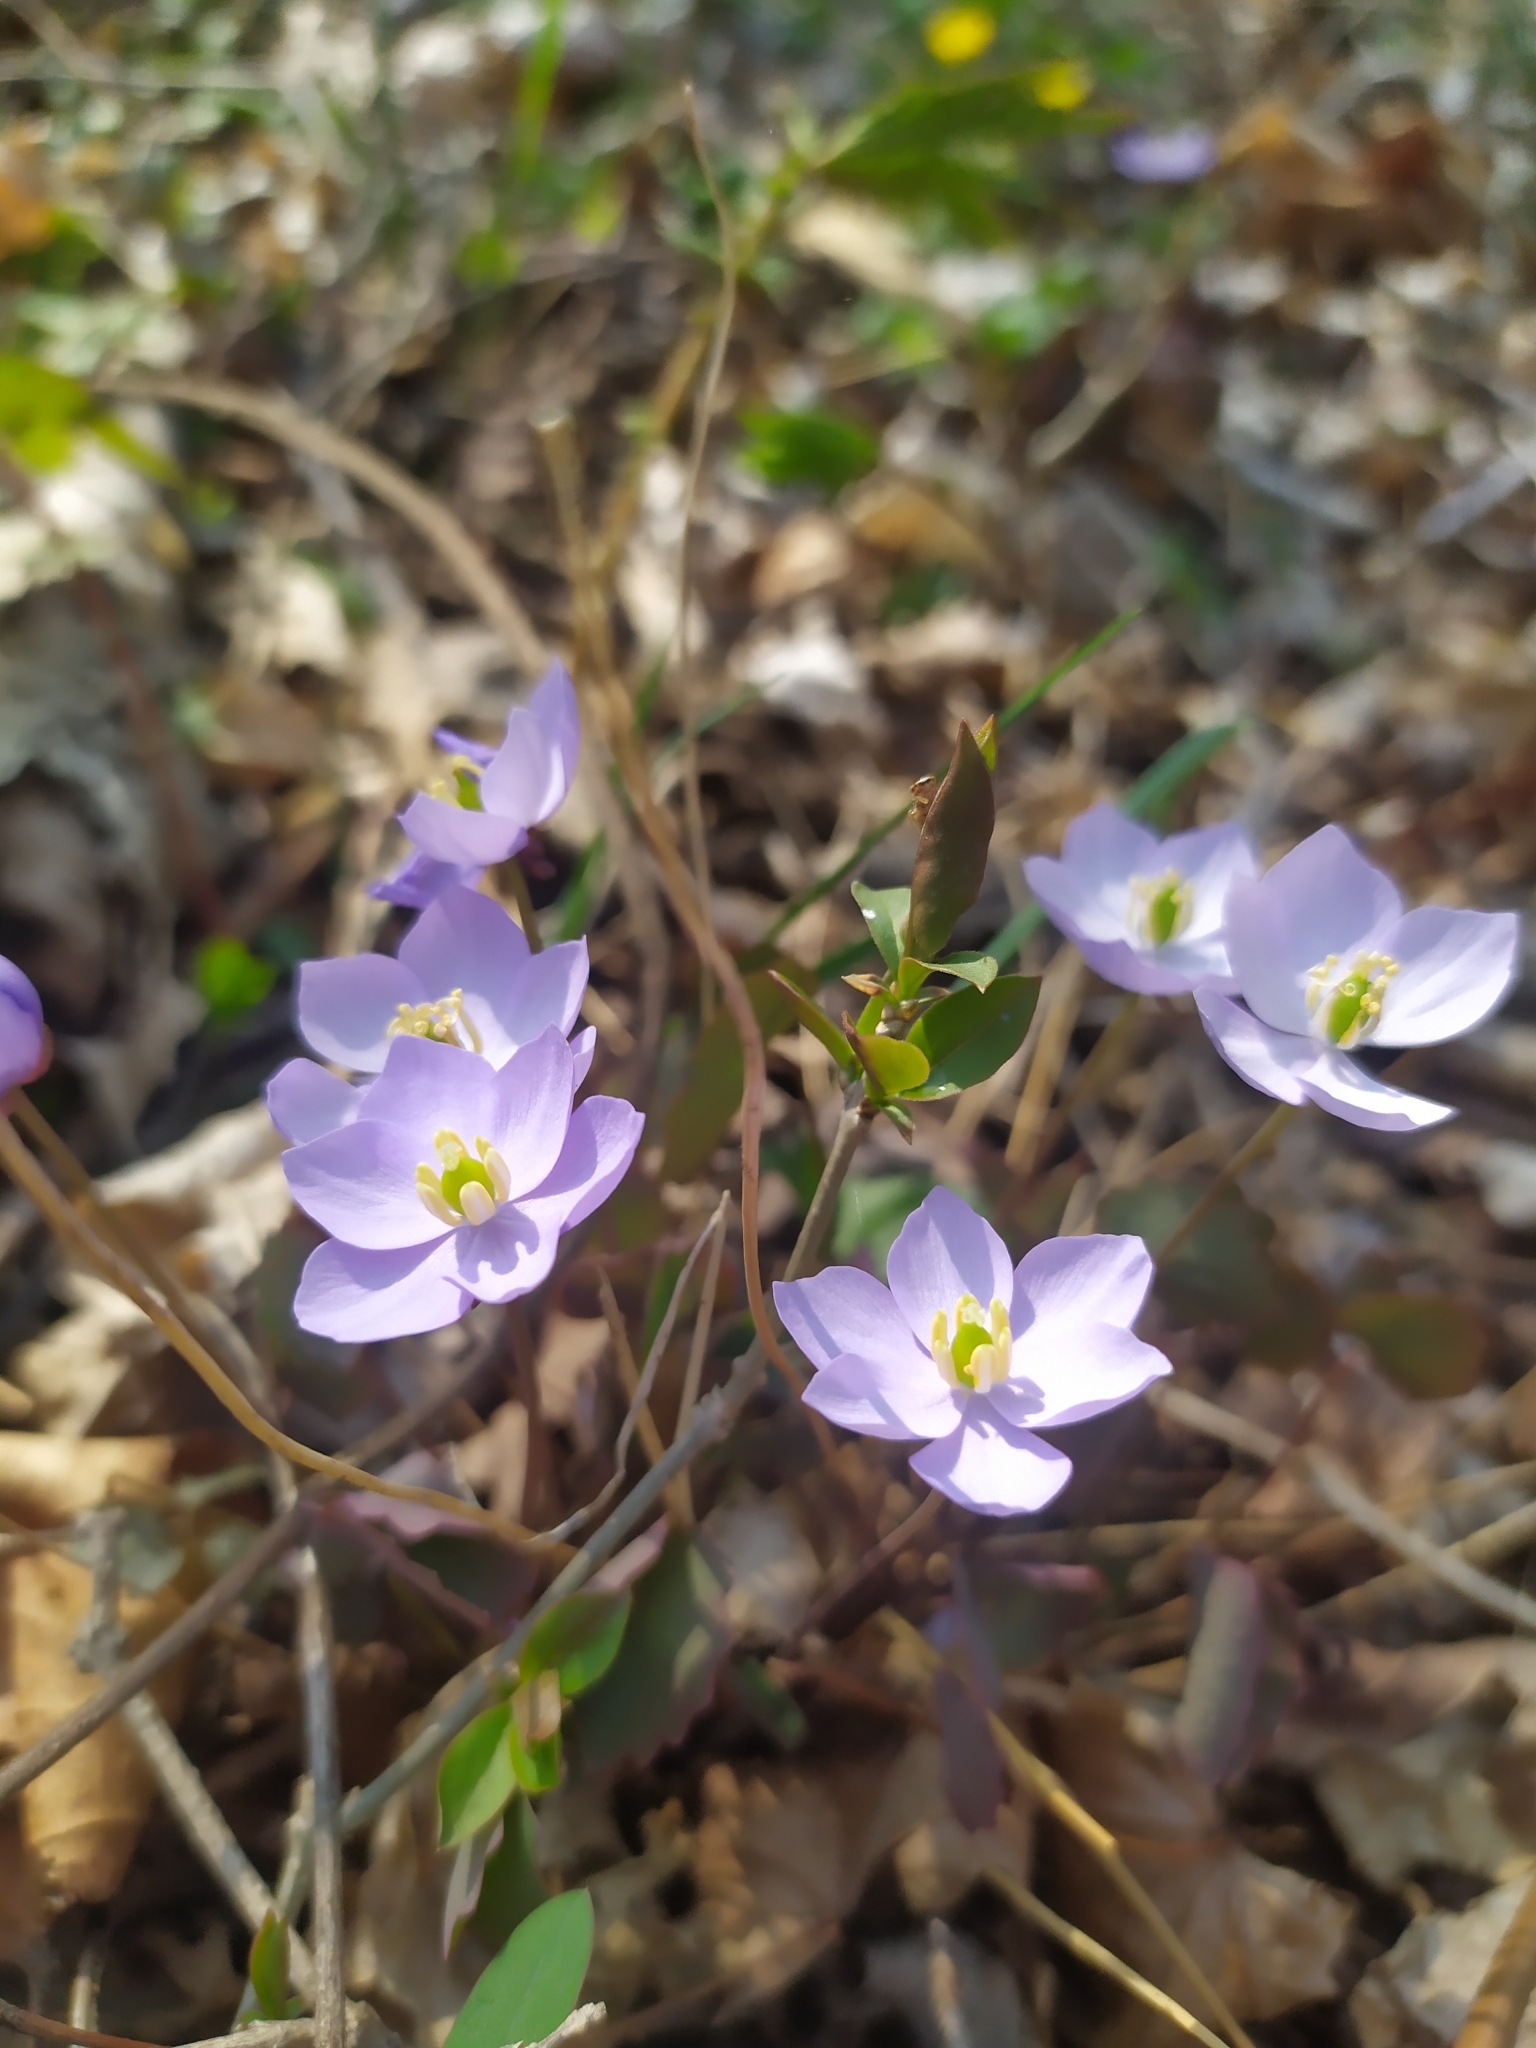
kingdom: Plantae
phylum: Tracheophyta
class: Magnoliopsida
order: Ranunculales
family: Berberidaceae
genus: Plagiorhegma
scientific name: Plagiorhegma dubium
